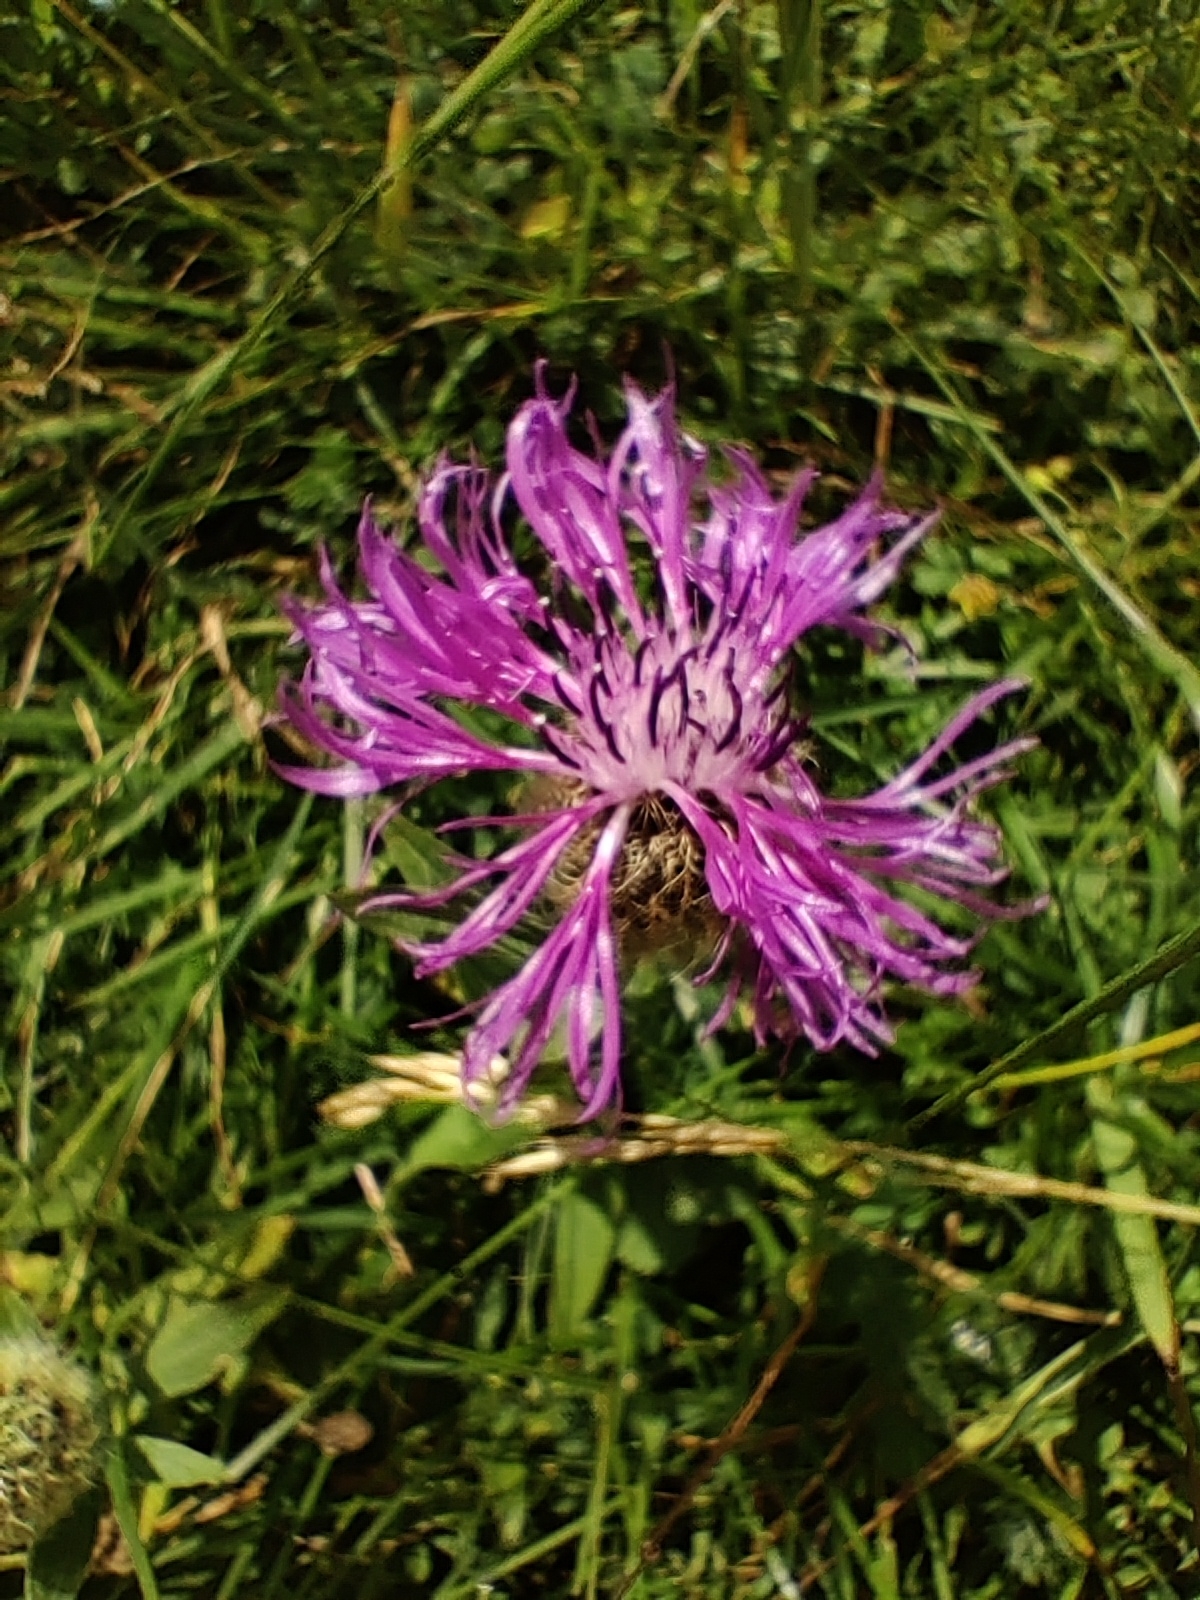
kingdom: Plantae
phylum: Tracheophyta
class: Magnoliopsida
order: Asterales
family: Asteraceae
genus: Centaurea
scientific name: Centaurea nervosa
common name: Singleflower knapweed
